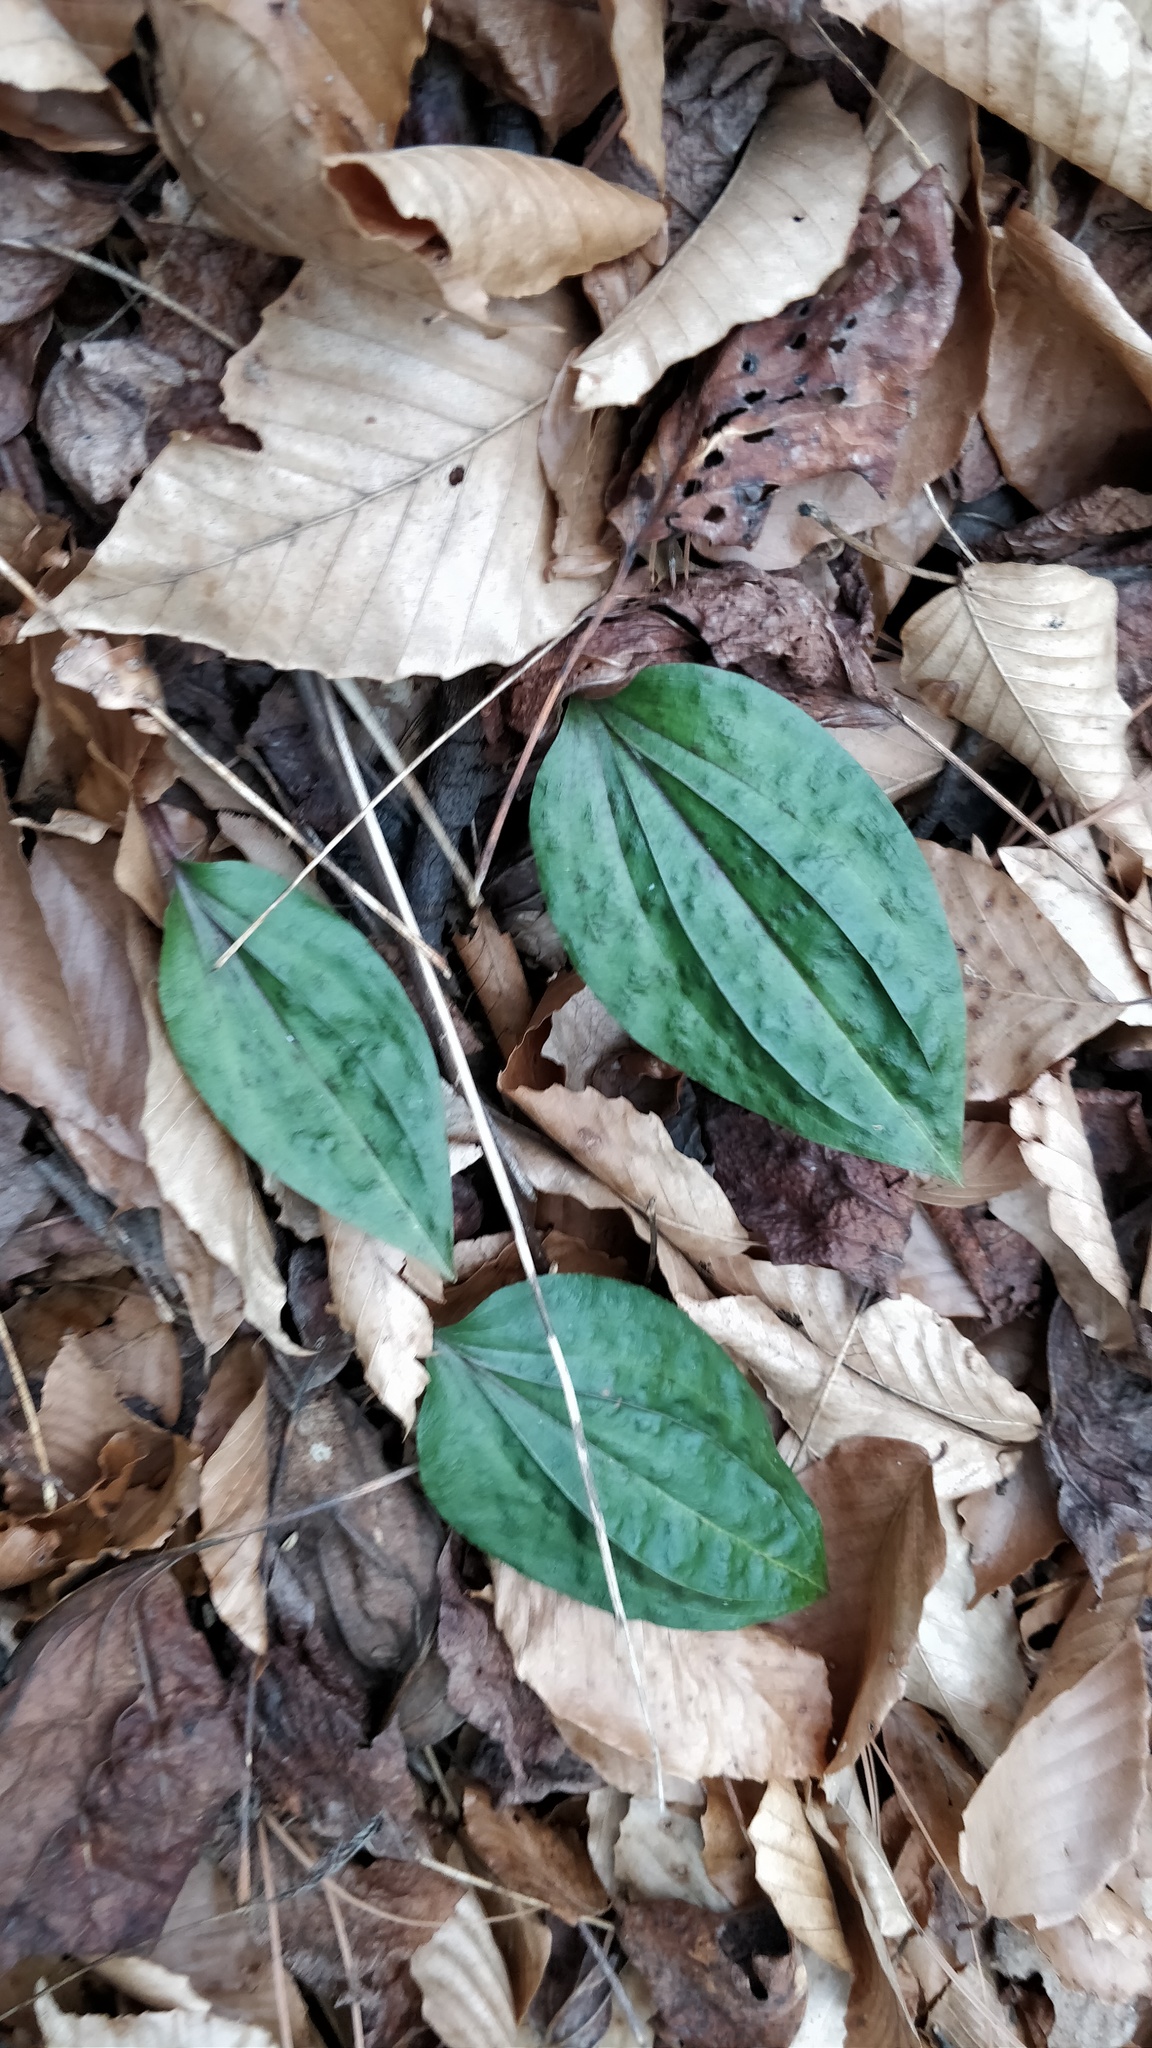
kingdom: Plantae
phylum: Tracheophyta
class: Liliopsida
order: Asparagales
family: Orchidaceae
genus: Tipularia
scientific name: Tipularia discolor
